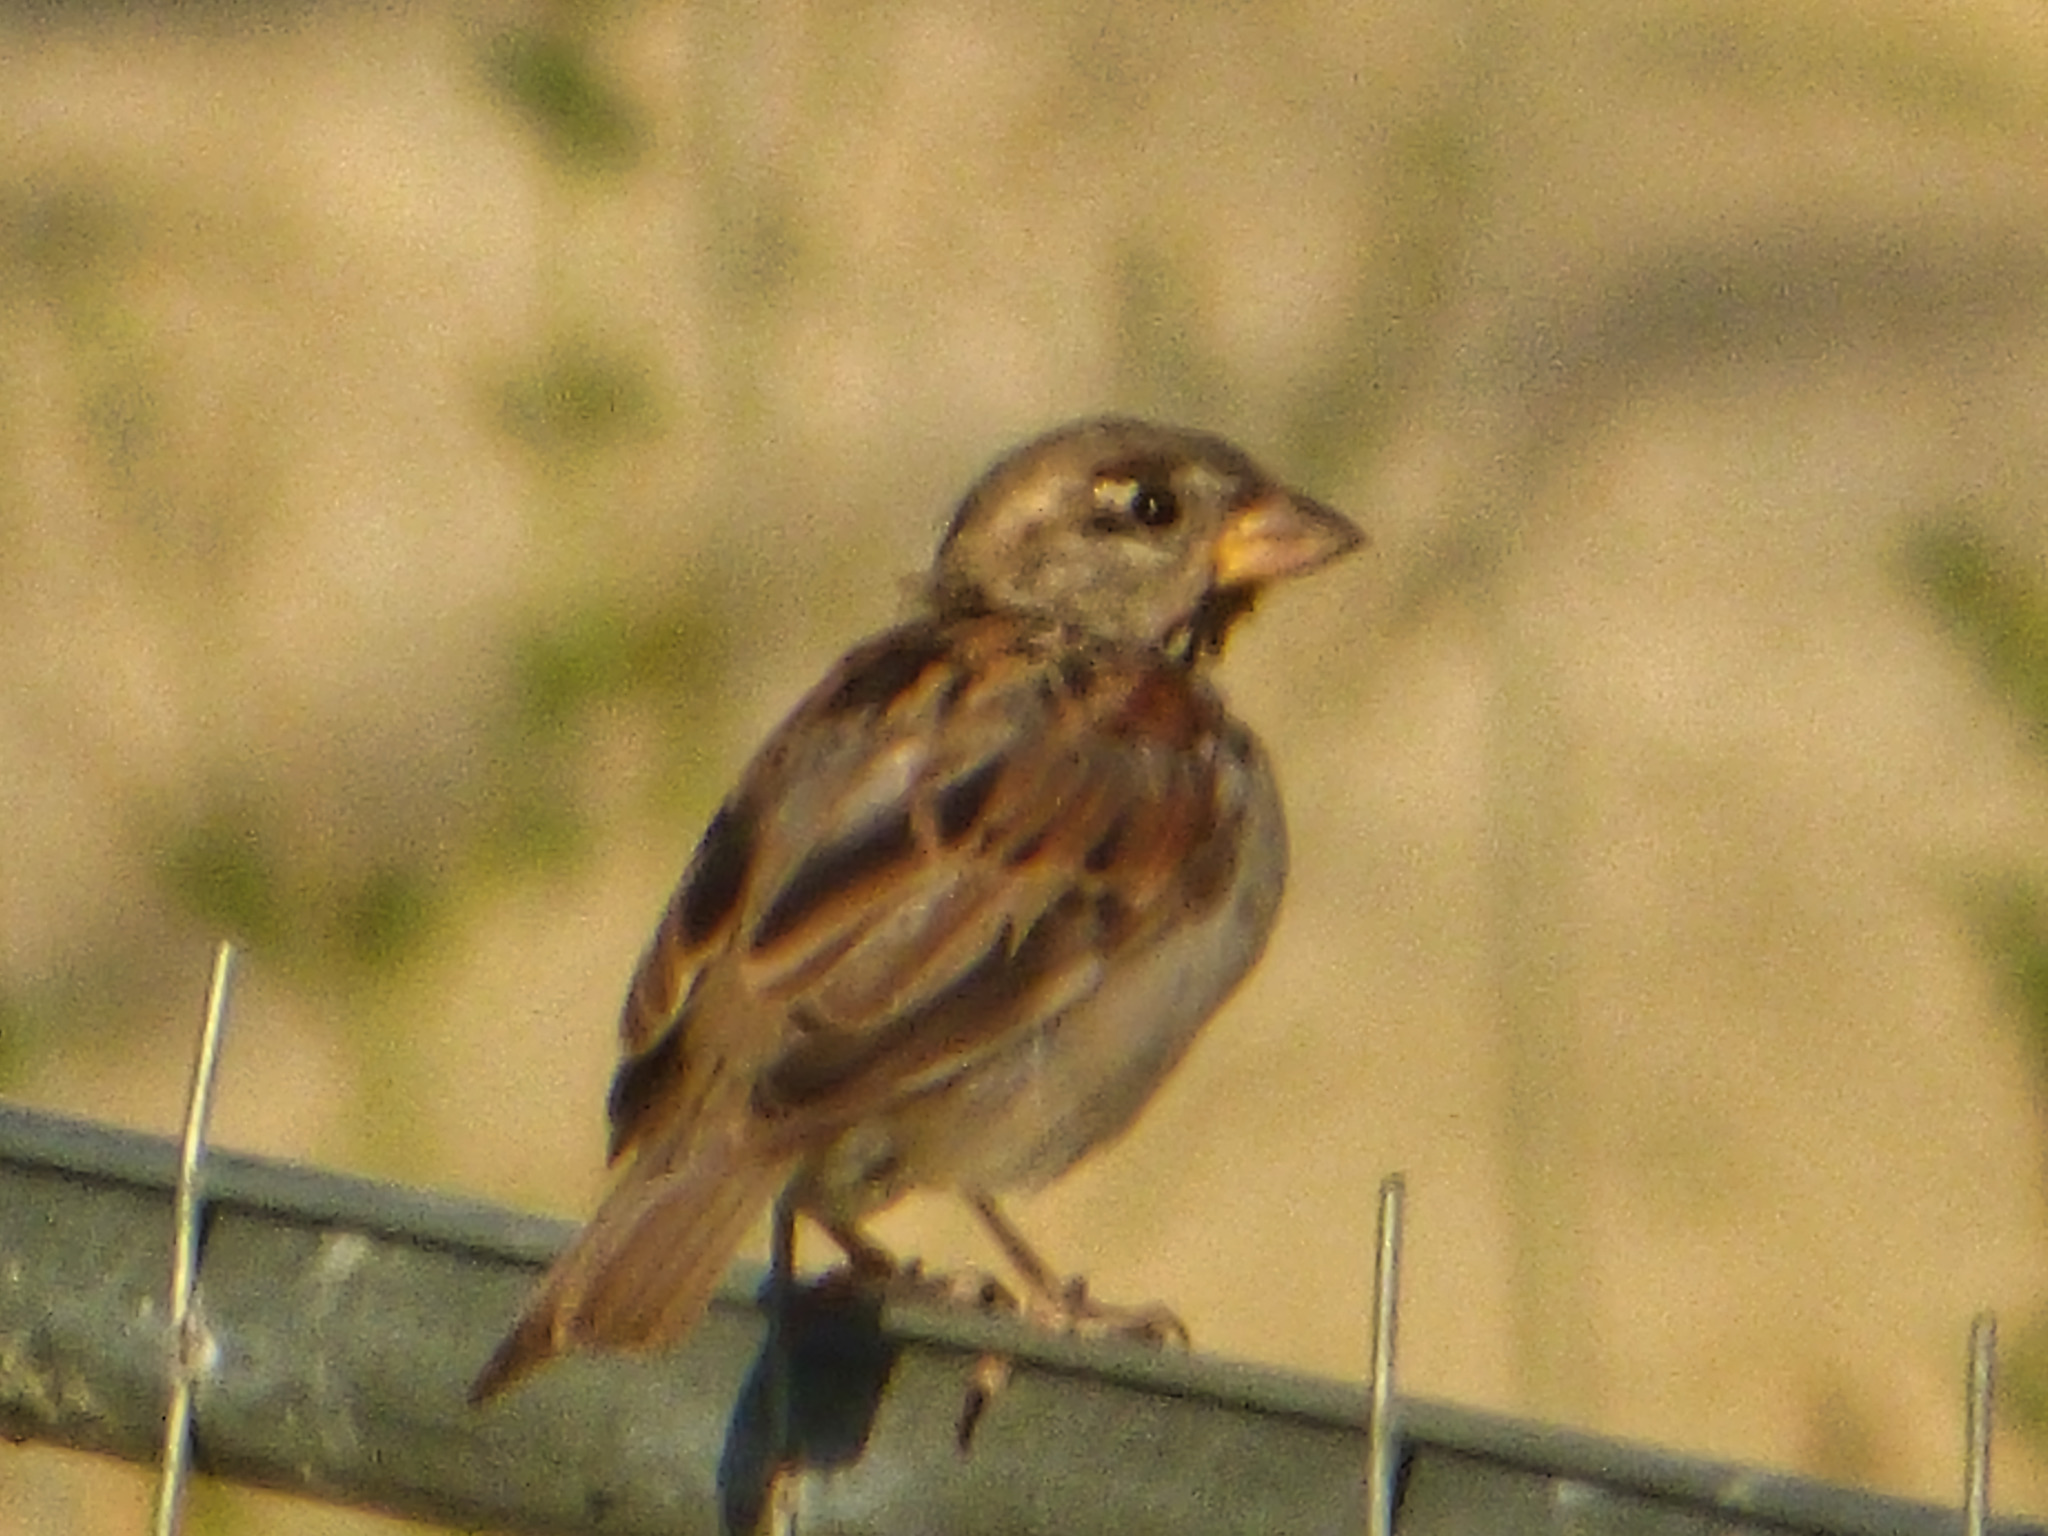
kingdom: Animalia
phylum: Chordata
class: Aves
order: Passeriformes
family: Passeridae
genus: Passer
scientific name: Passer domesticus
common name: House sparrow
